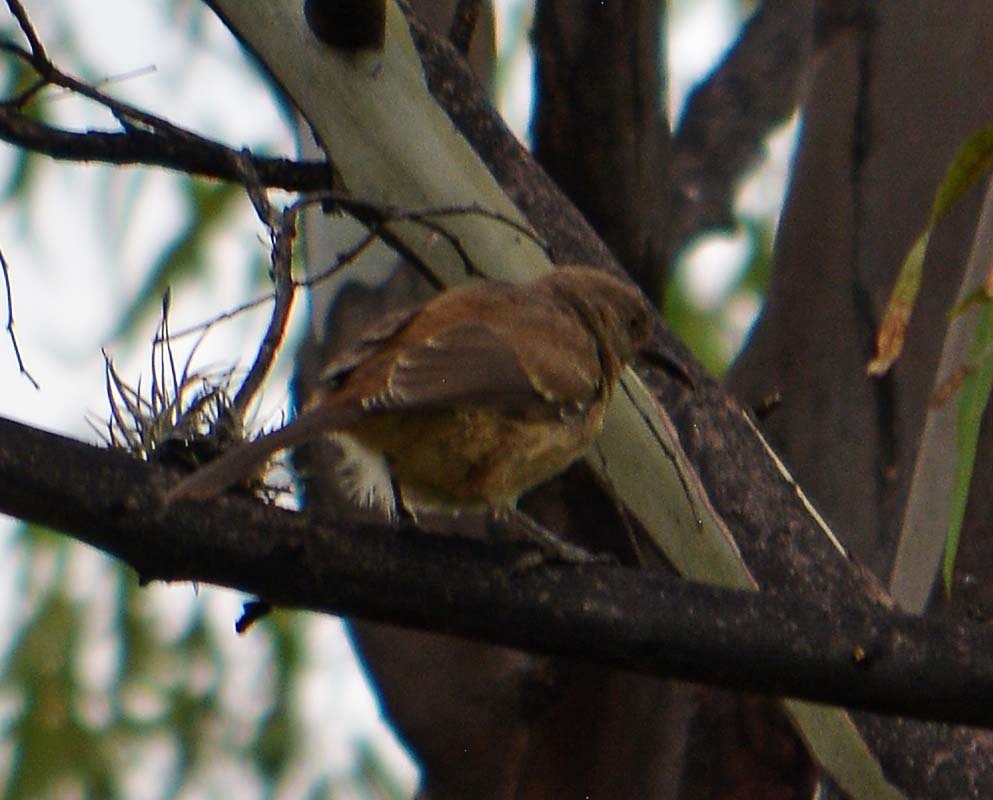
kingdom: Animalia
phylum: Chordata
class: Aves
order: Passeriformes
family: Mimidae
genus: Toxostoma
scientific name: Toxostoma curvirostre
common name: Curve-billed thrasher
